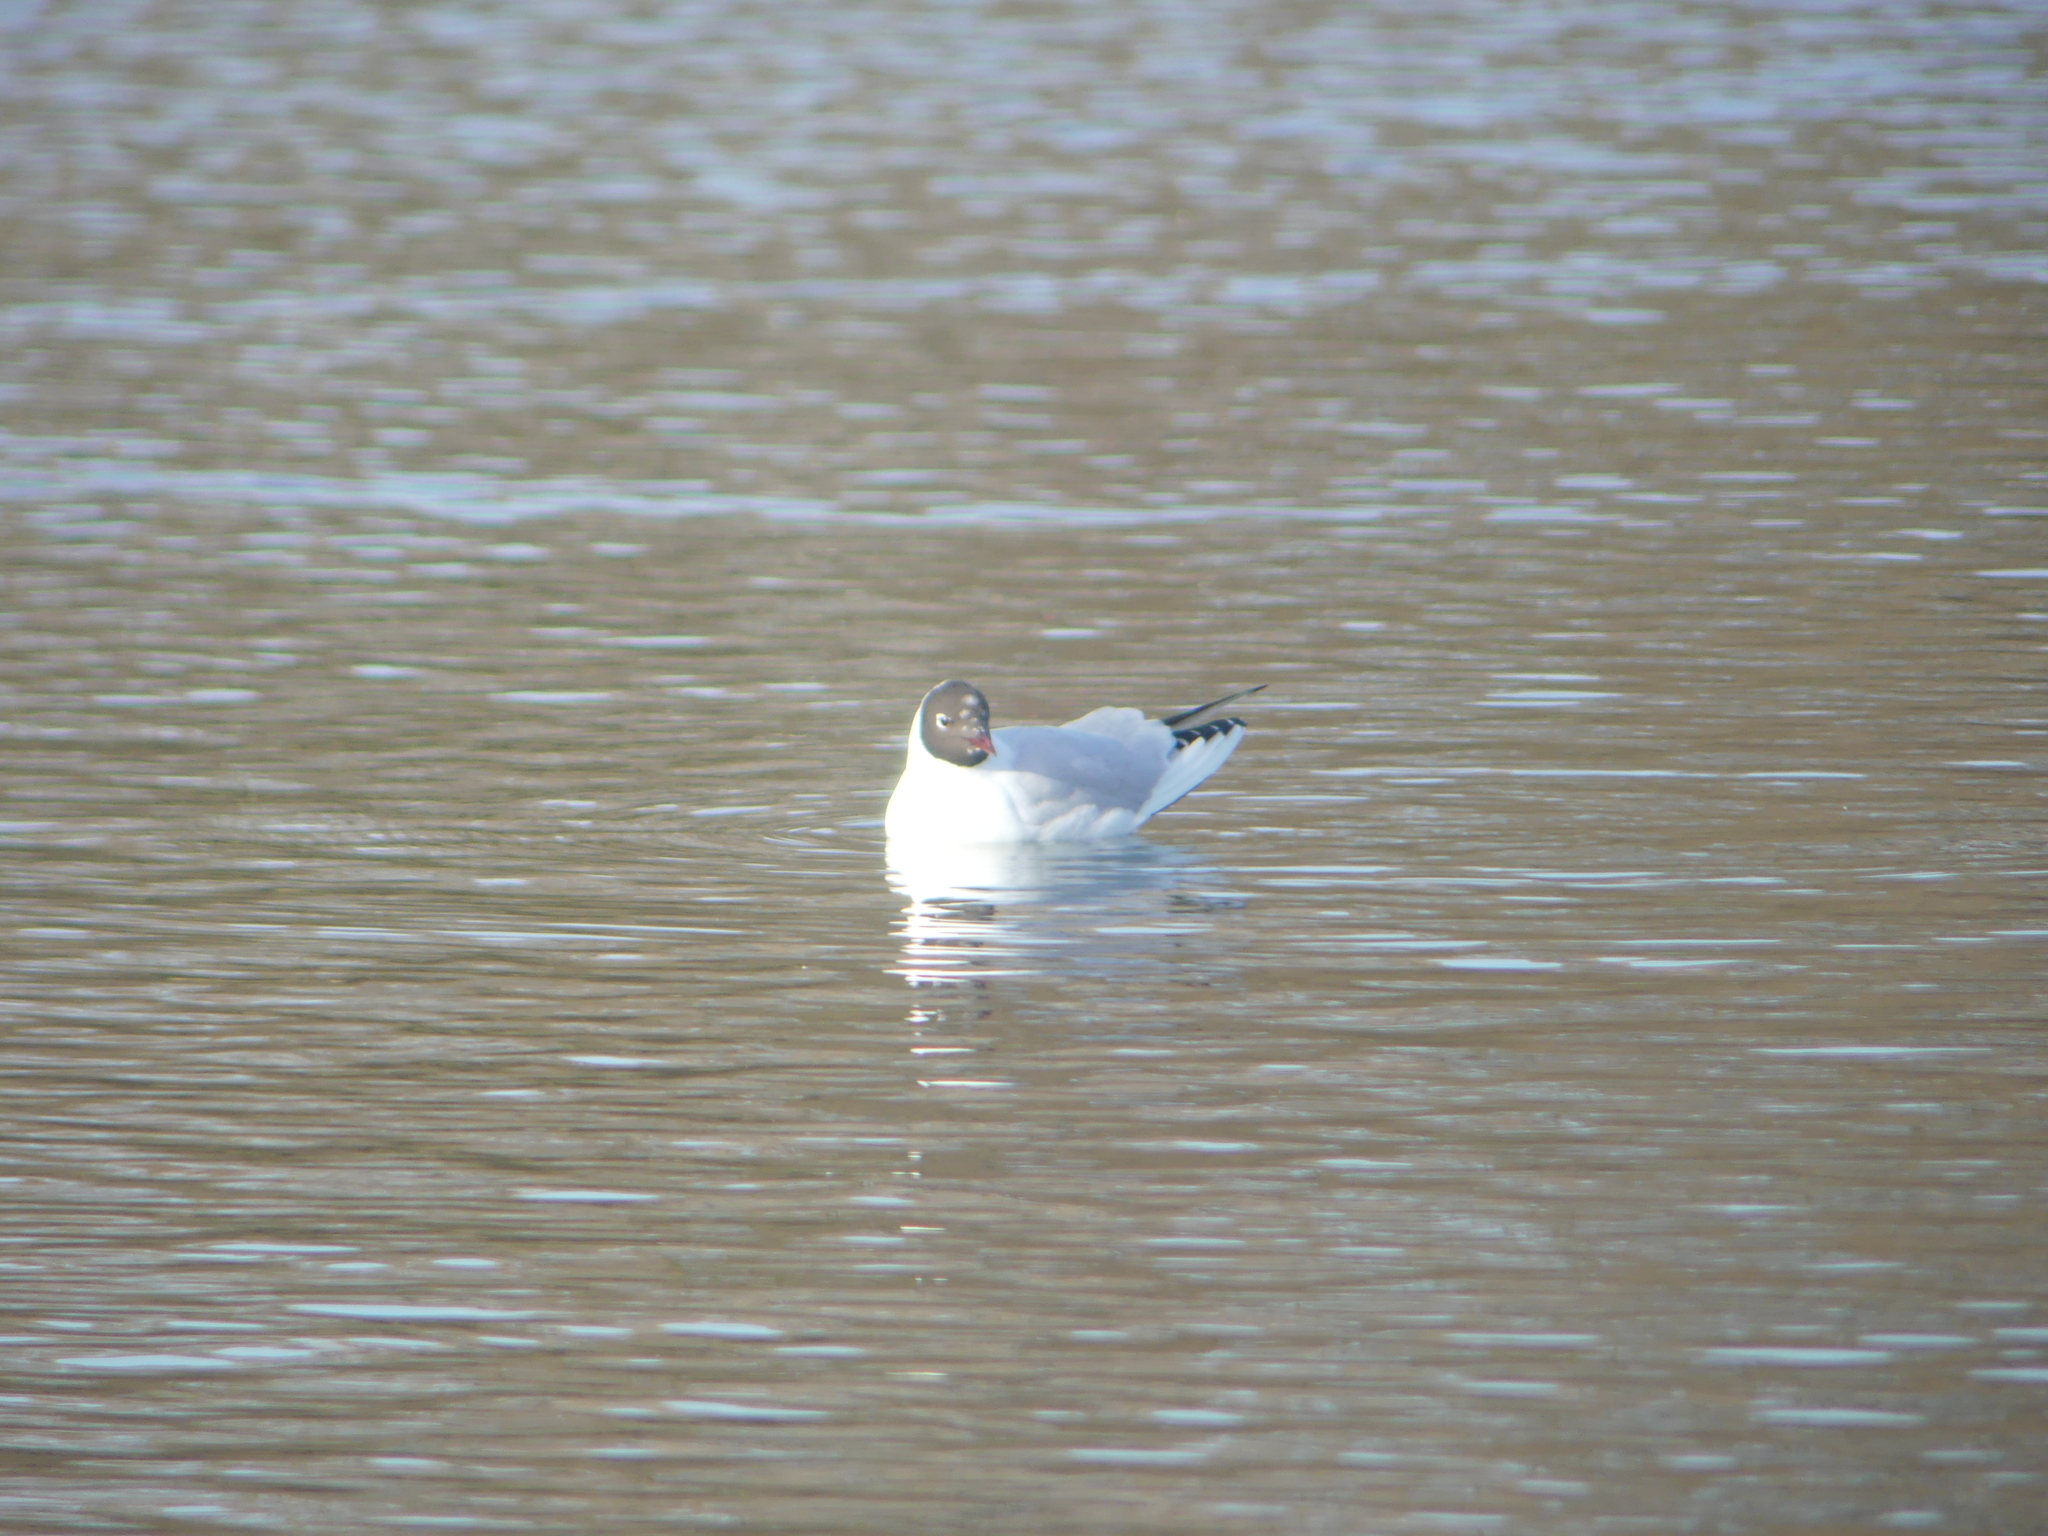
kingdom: Animalia
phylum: Chordata
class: Aves
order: Charadriiformes
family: Laridae
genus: Chroicocephalus
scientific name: Chroicocephalus ridibundus
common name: Black-headed gull
